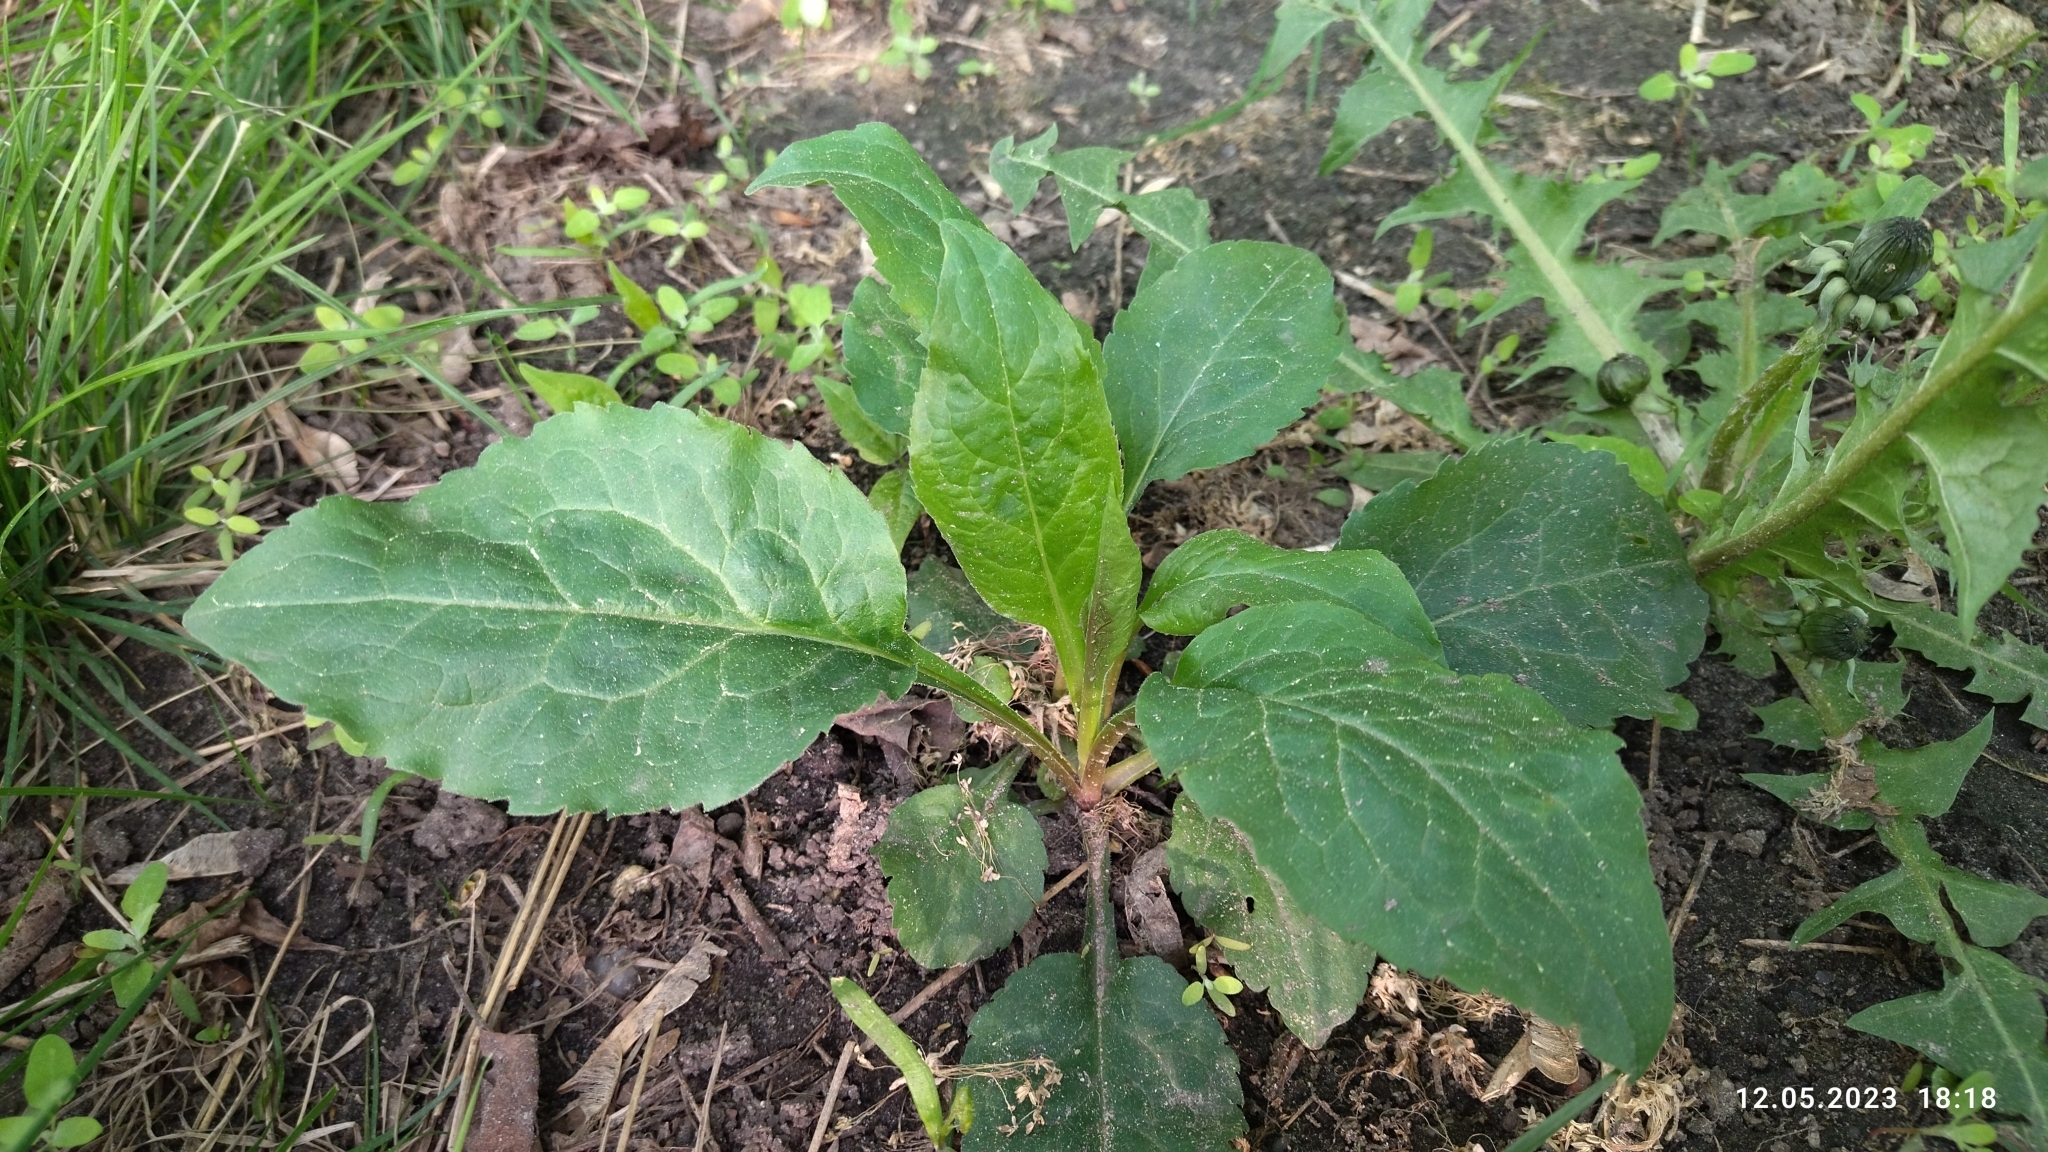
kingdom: Plantae
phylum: Tracheophyta
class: Magnoliopsida
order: Asterales
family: Asteraceae
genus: Solidago
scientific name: Solidago virgaurea
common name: Goldenrod
